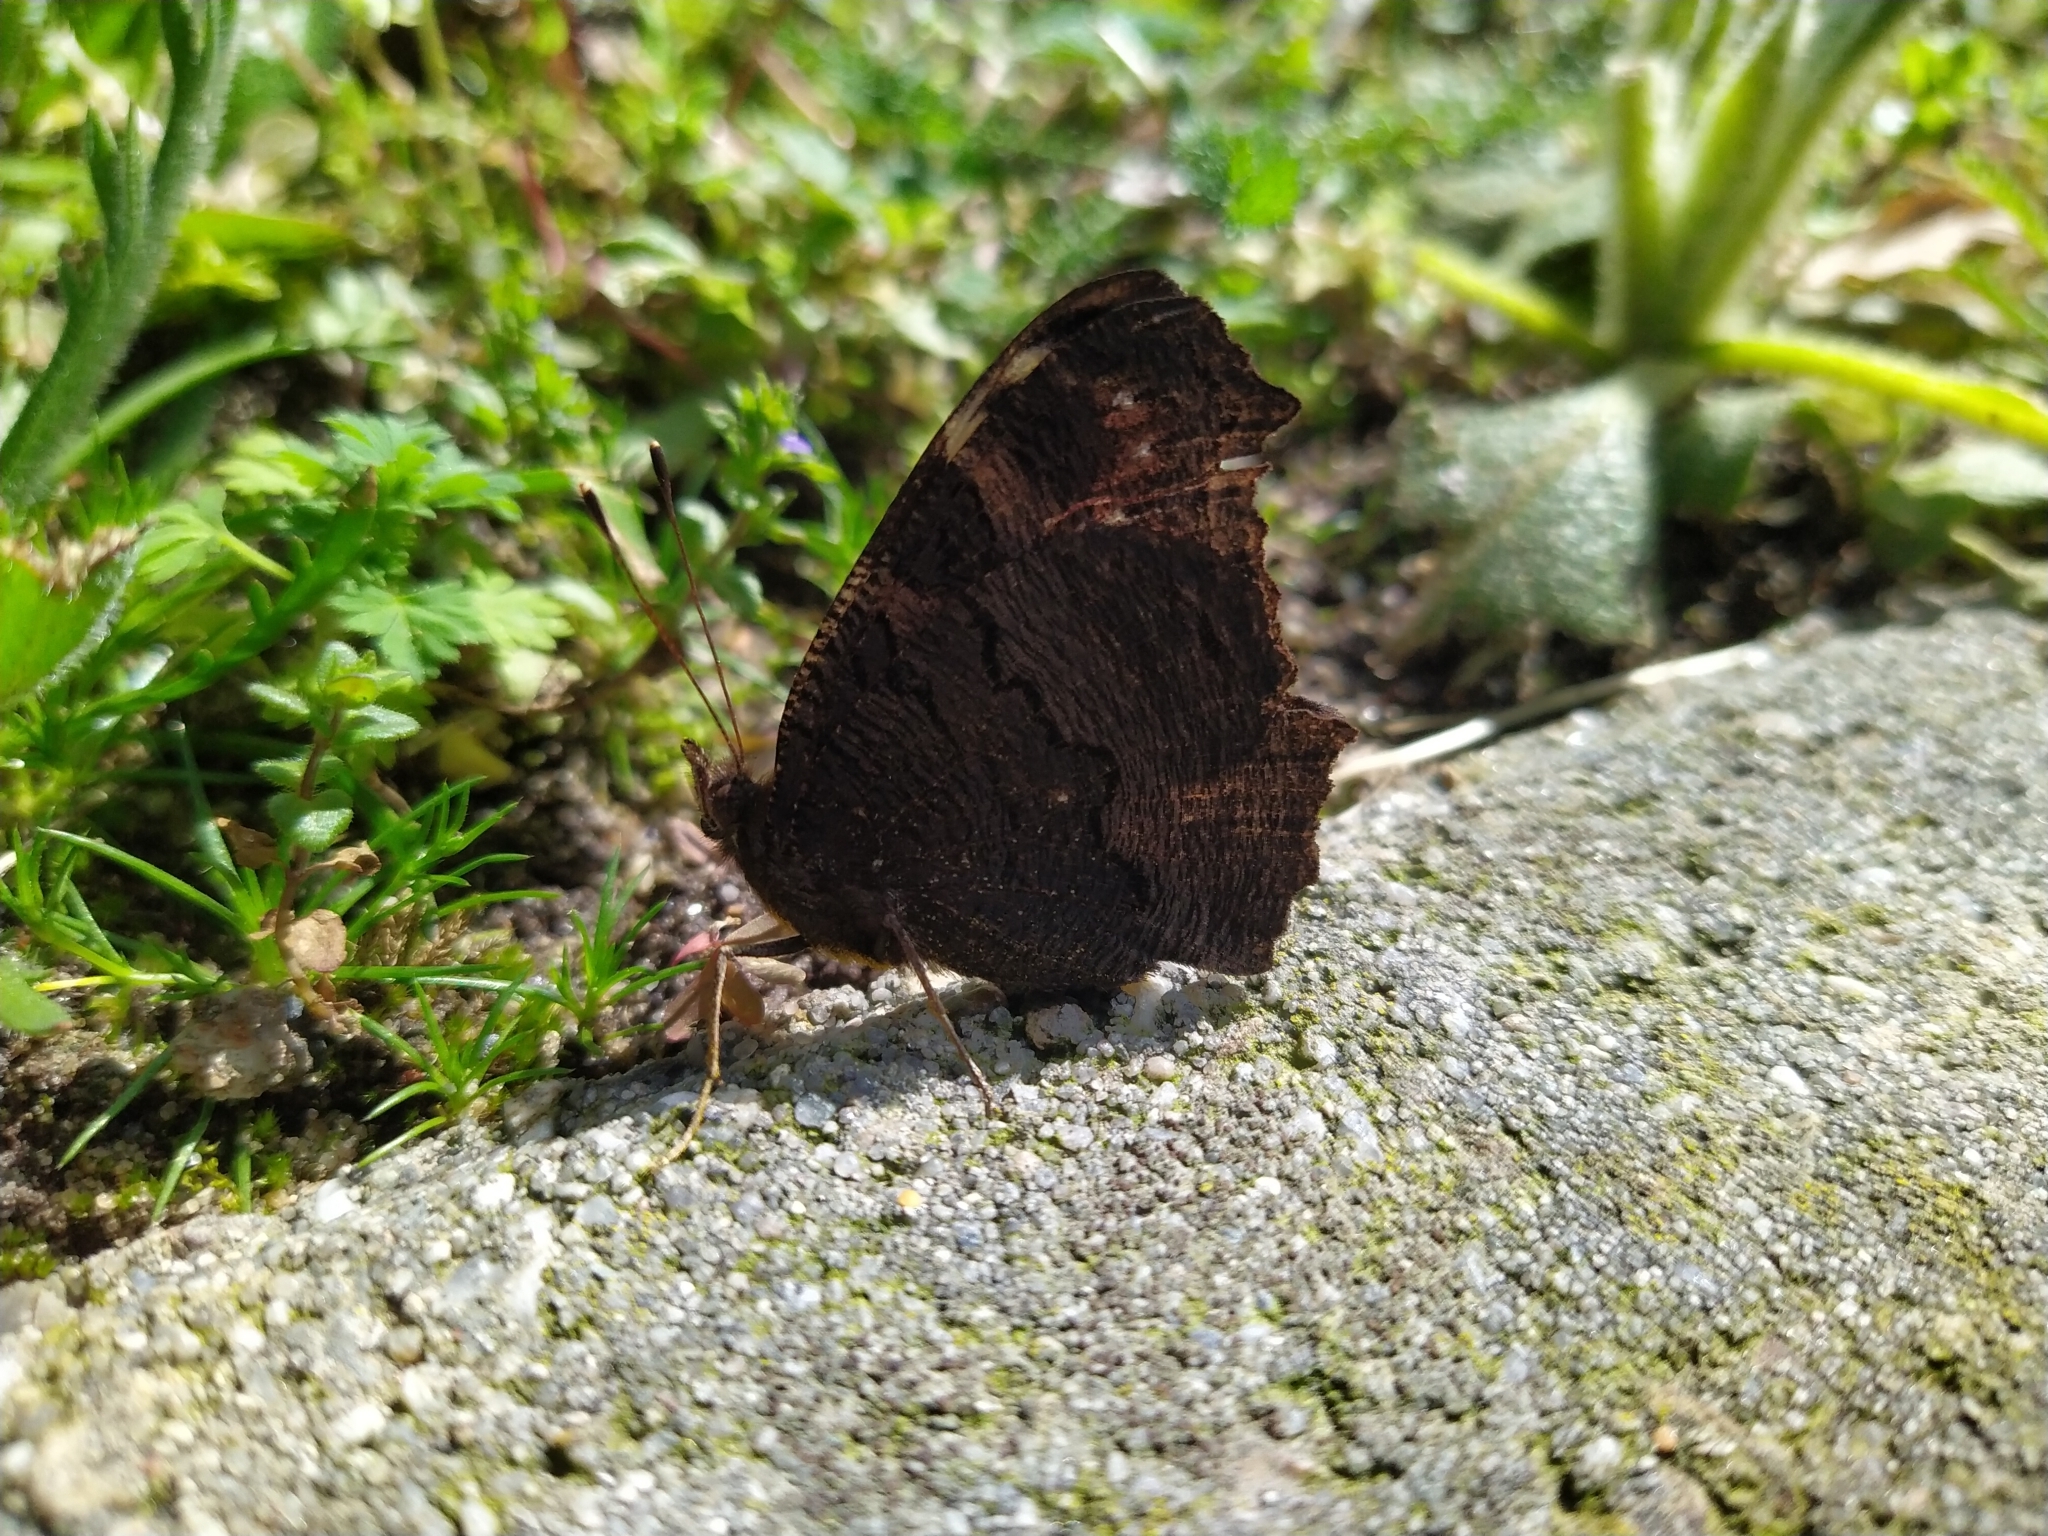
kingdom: Animalia
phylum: Arthropoda
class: Insecta
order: Lepidoptera
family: Nymphalidae
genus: Aglais
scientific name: Aglais io
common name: Peacock
